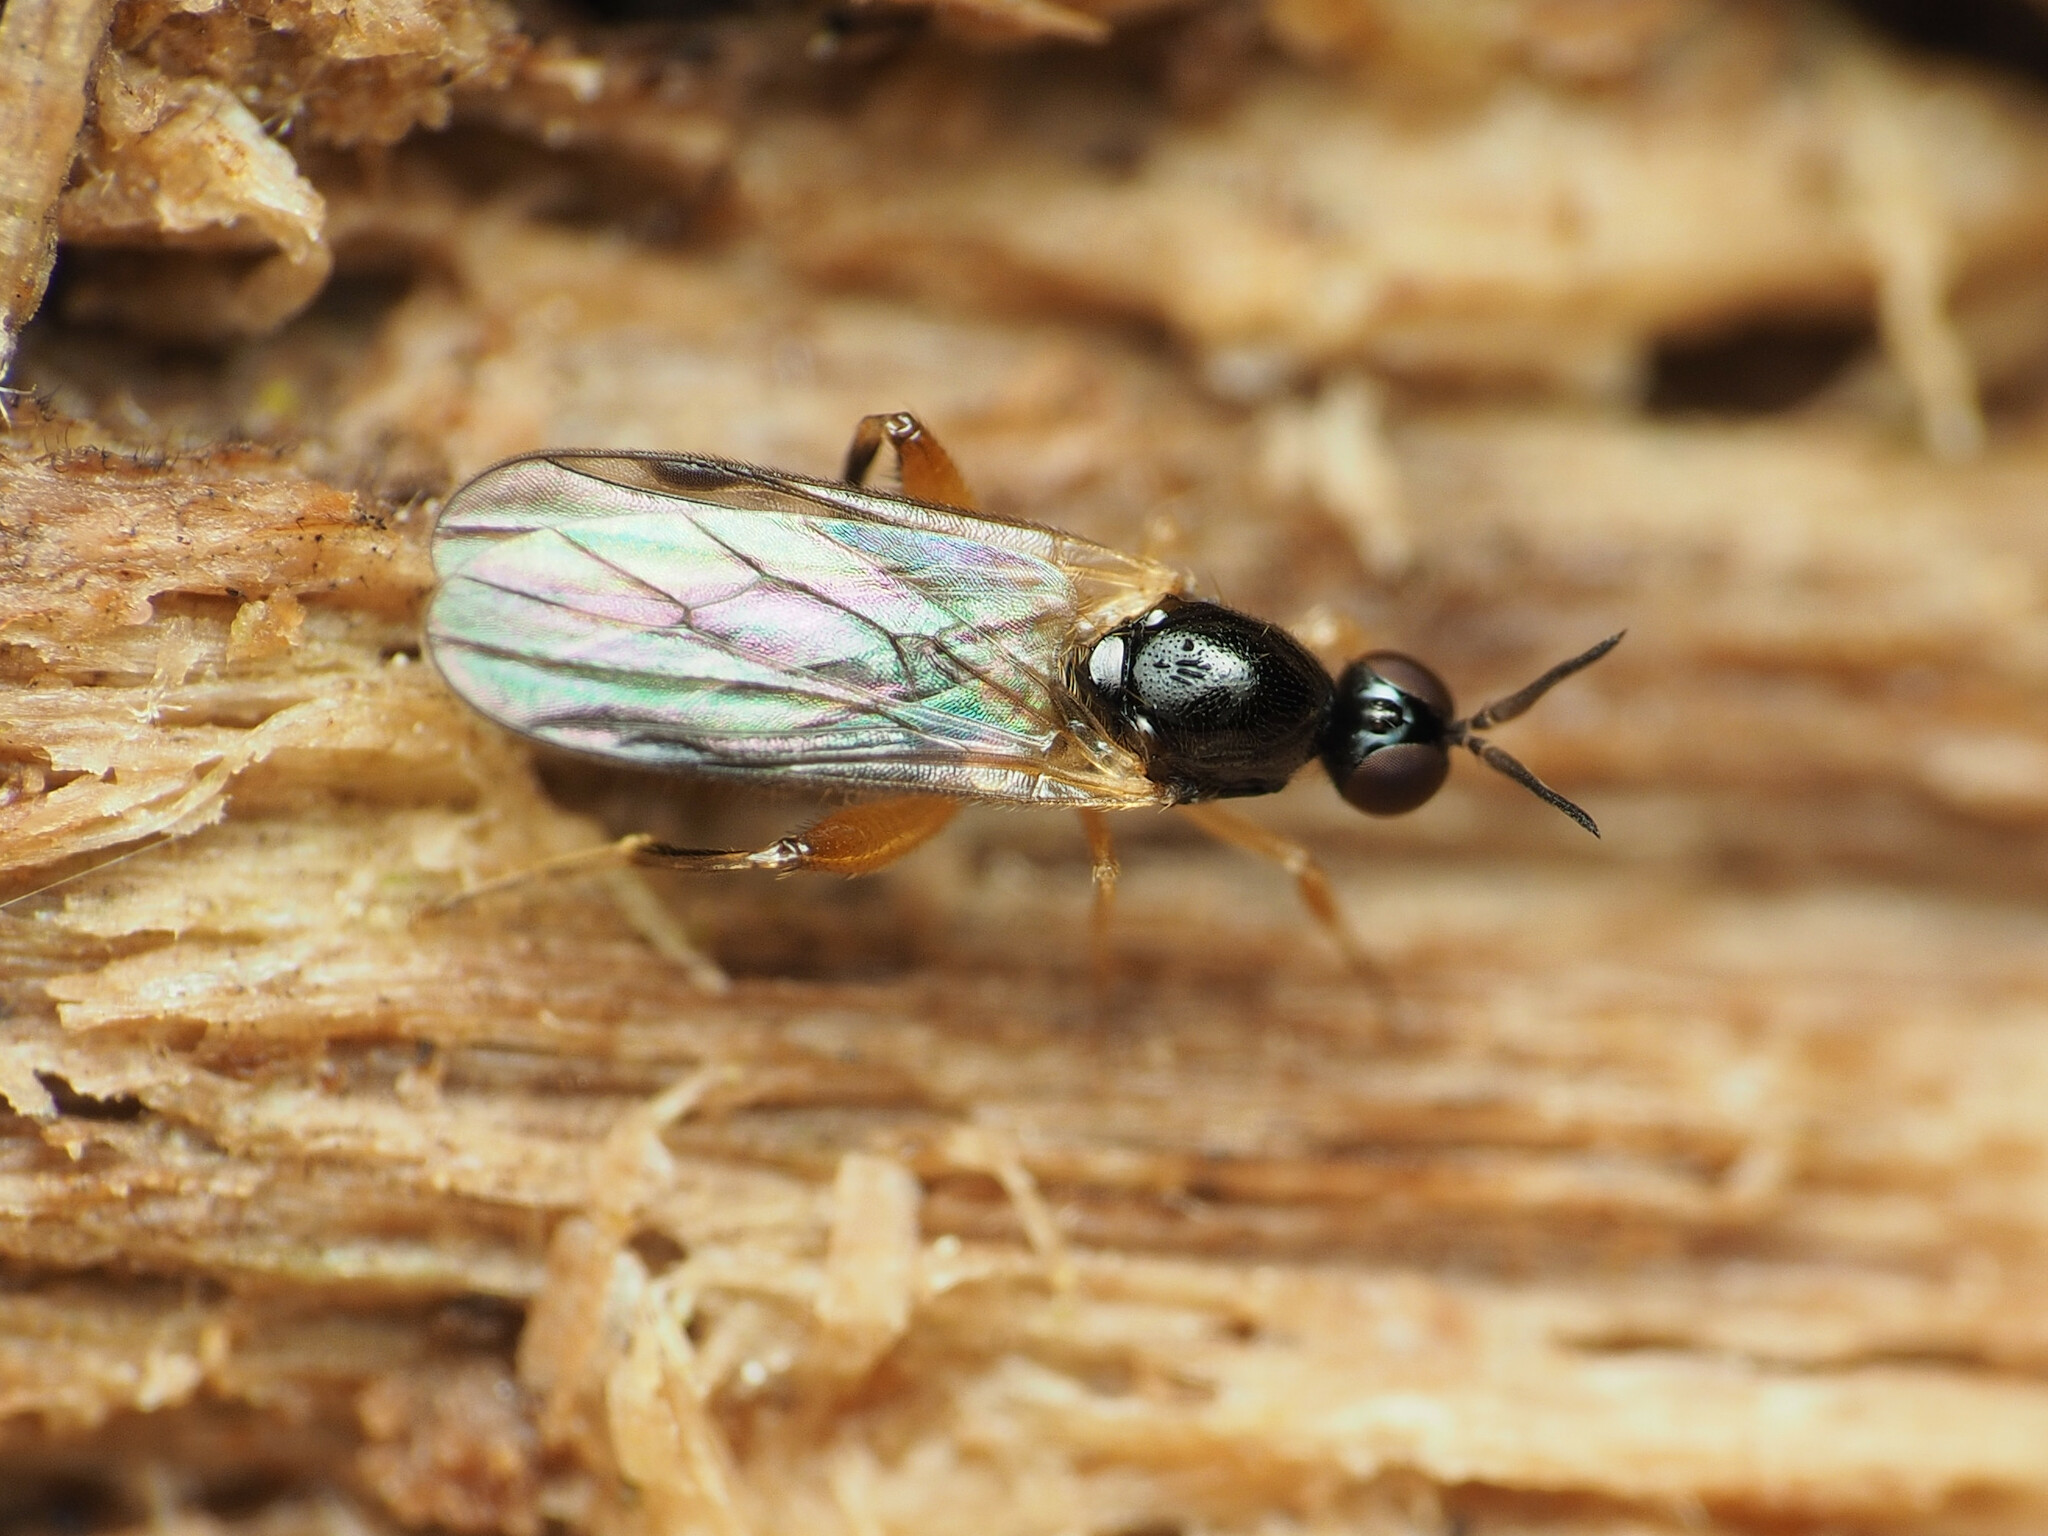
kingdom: Animalia
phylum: Arthropoda
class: Insecta
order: Diptera
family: Hybotidae
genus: Oedalea
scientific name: Oedalea ohioensis
